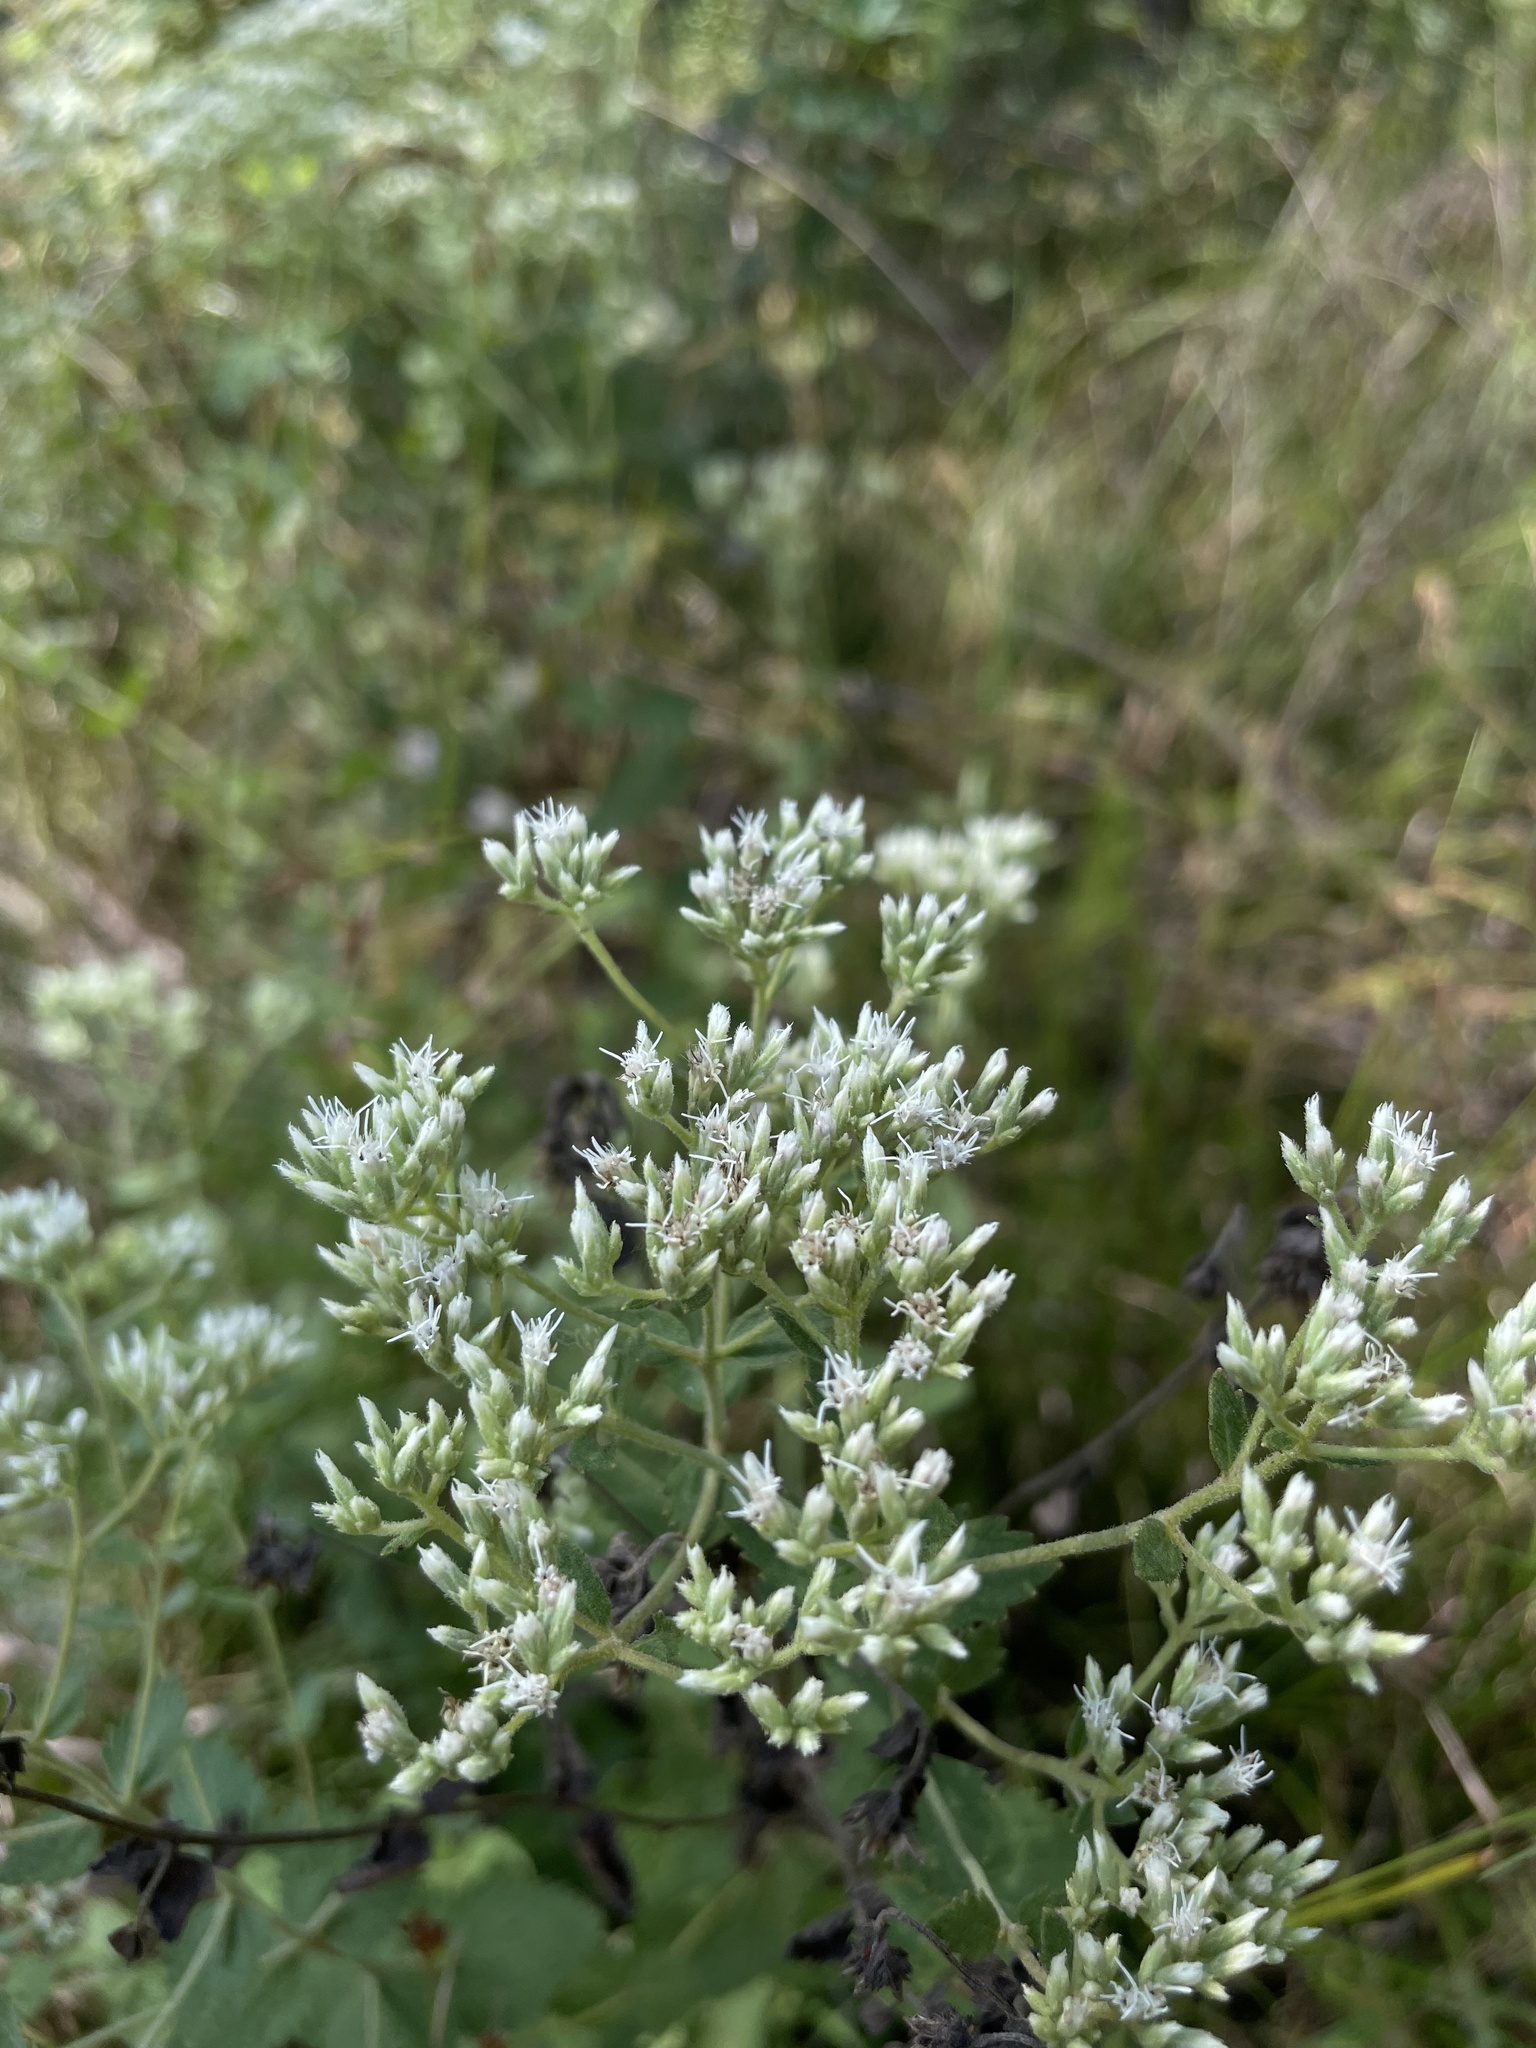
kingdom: Plantae
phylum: Tracheophyta
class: Magnoliopsida
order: Asterales
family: Asteraceae
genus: Eupatorium
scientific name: Eupatorium rotundifolium
